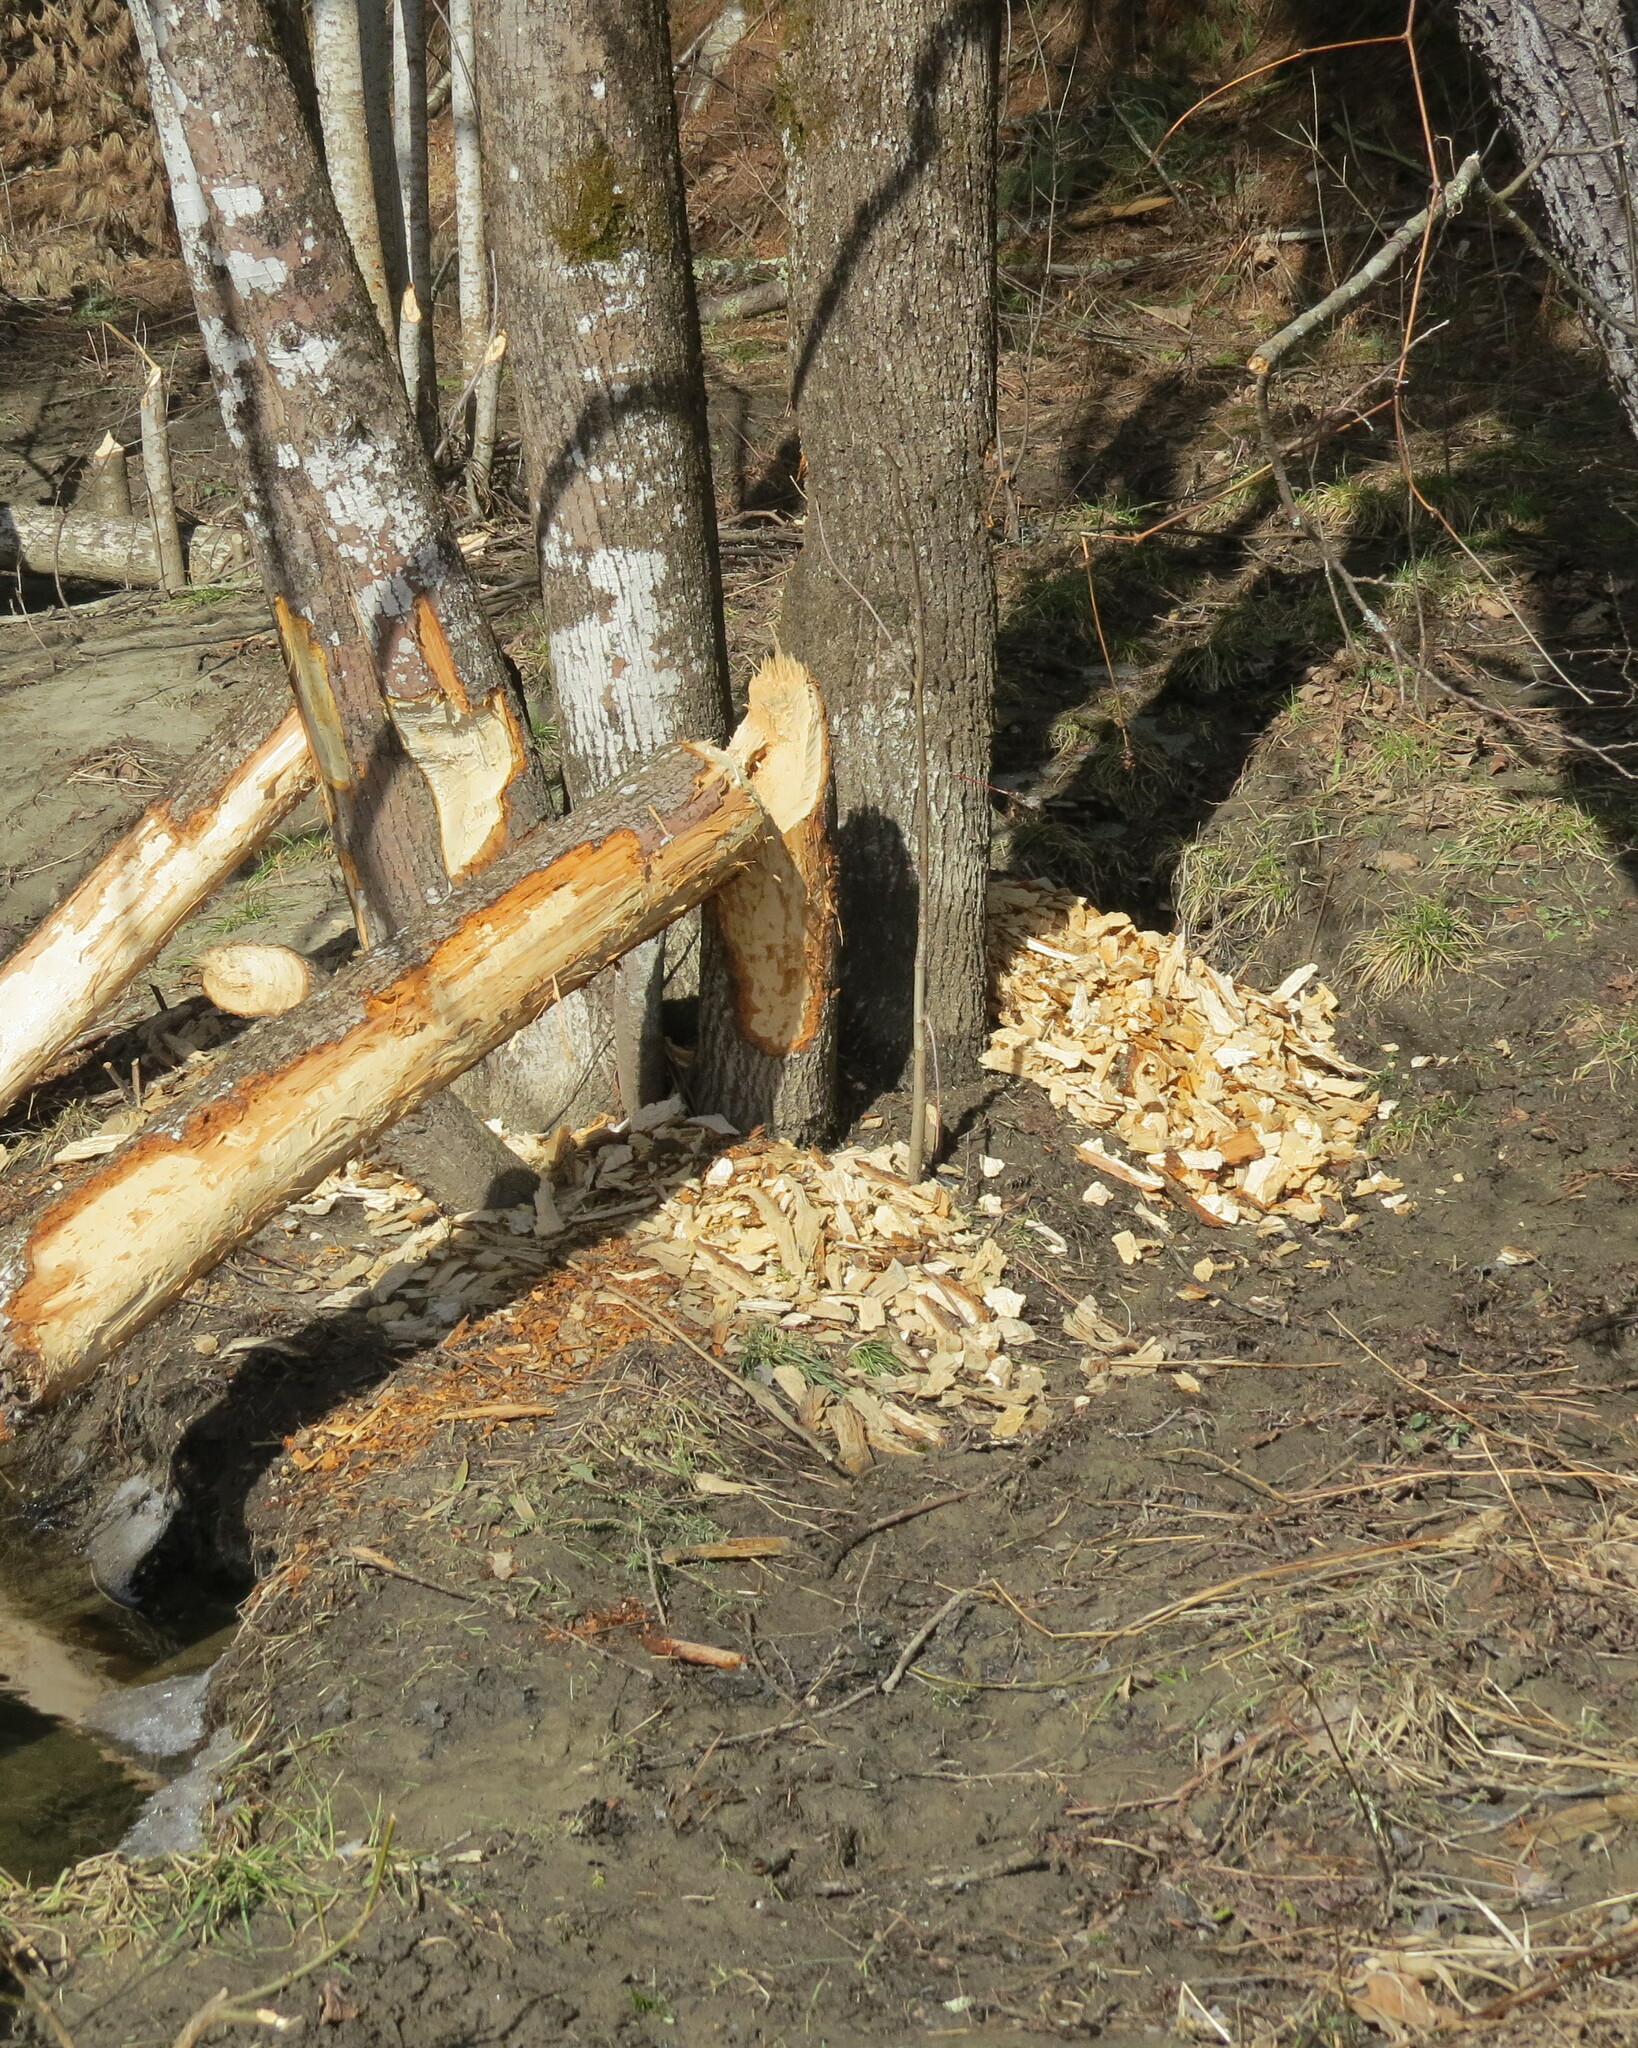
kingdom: Animalia
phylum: Chordata
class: Mammalia
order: Rodentia
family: Castoridae
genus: Castor
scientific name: Castor canadensis
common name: American beaver
